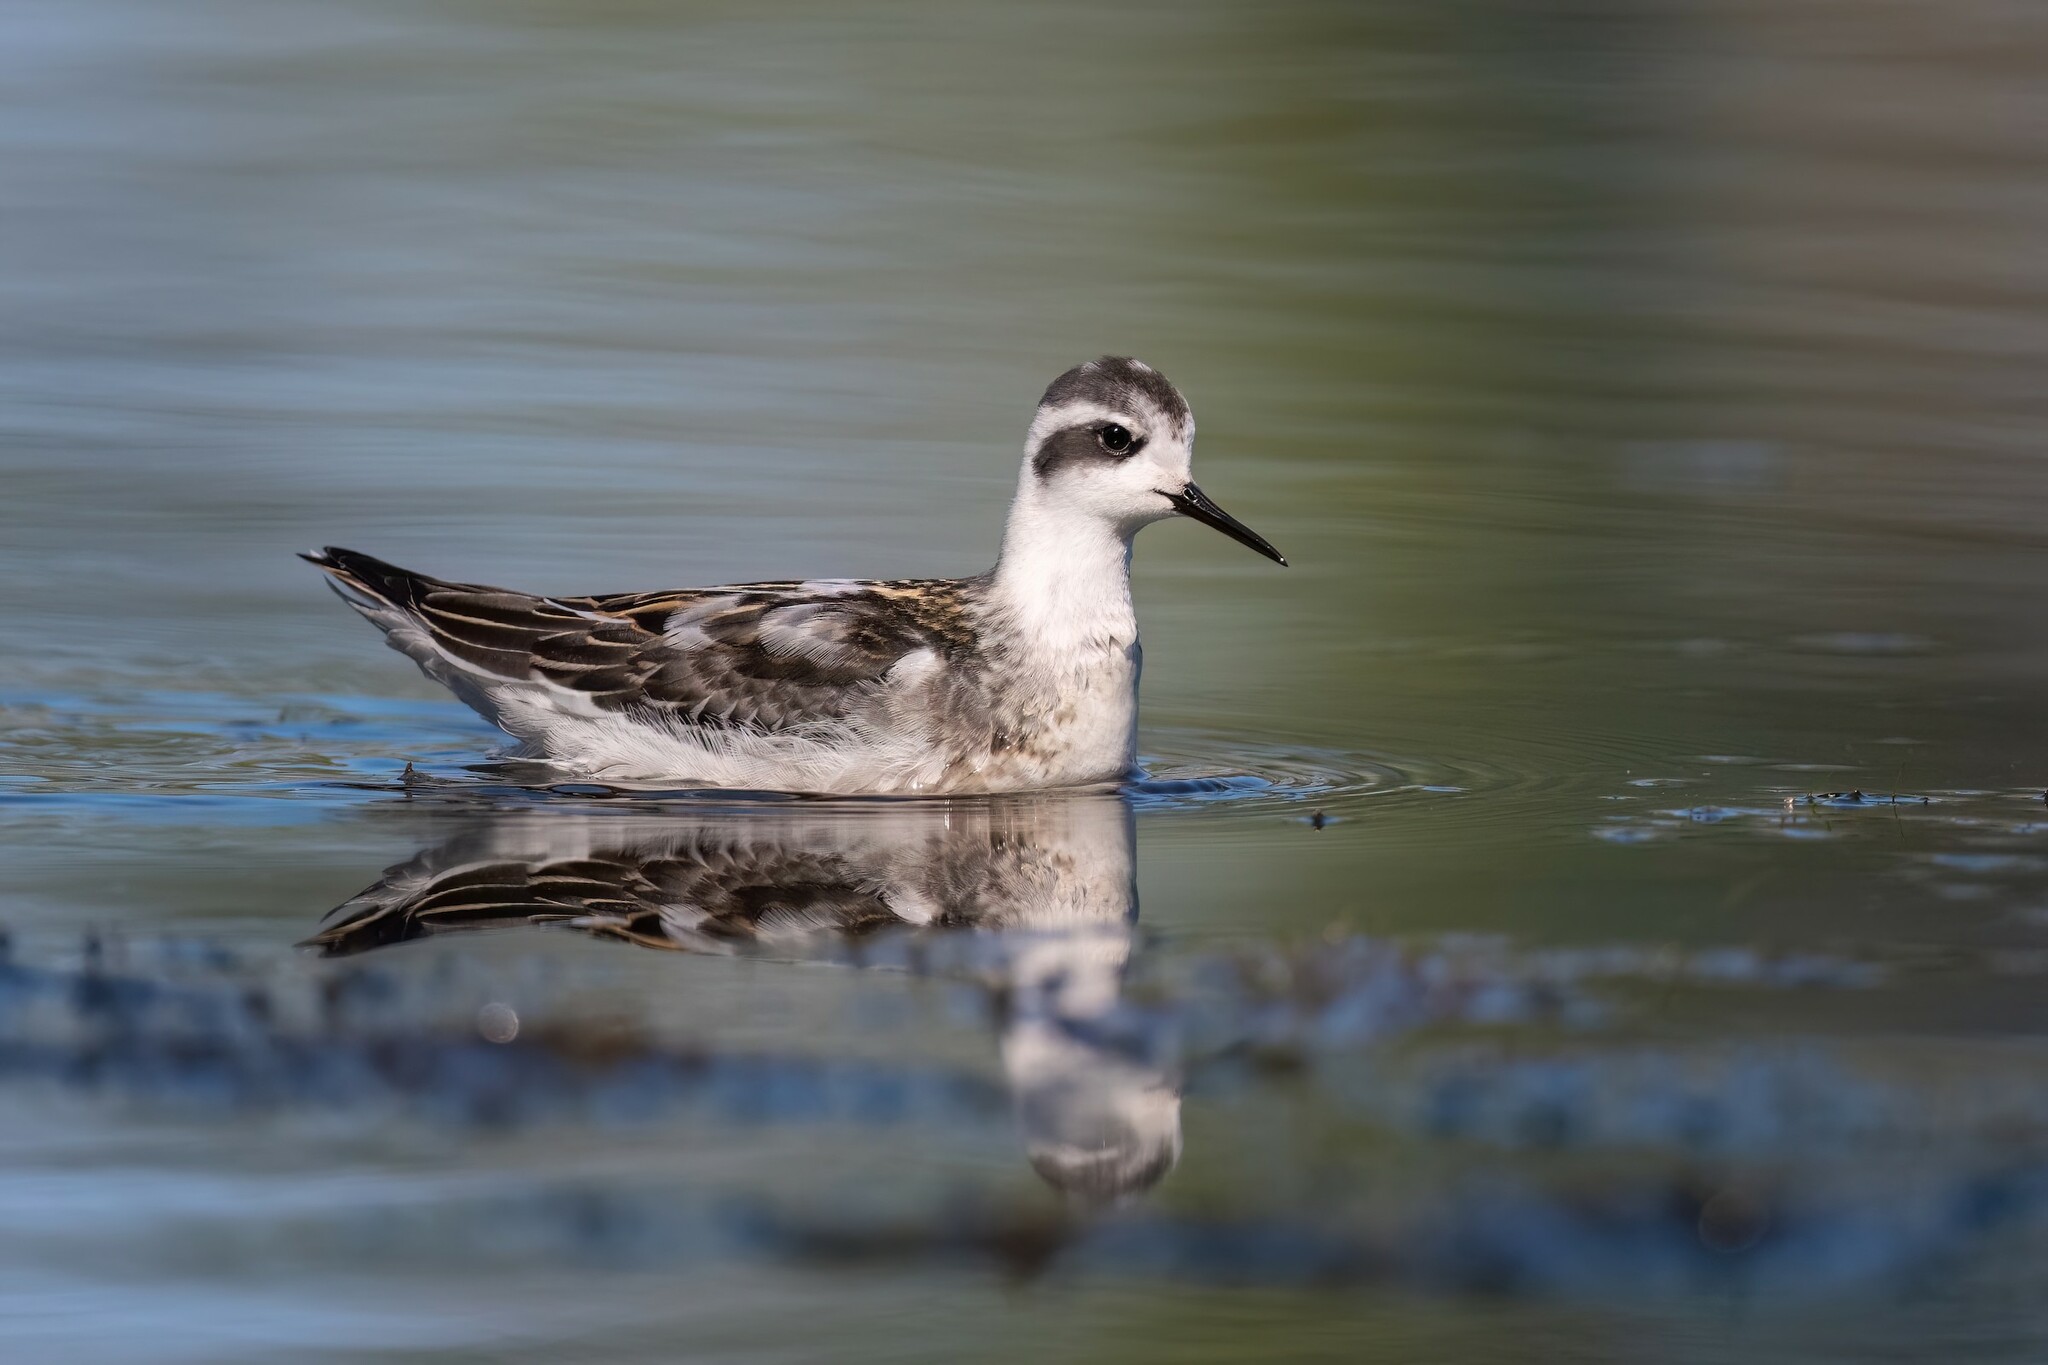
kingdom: Animalia
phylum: Chordata
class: Aves
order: Charadriiformes
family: Scolopacidae
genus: Phalaropus
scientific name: Phalaropus lobatus
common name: Red-necked phalarope
